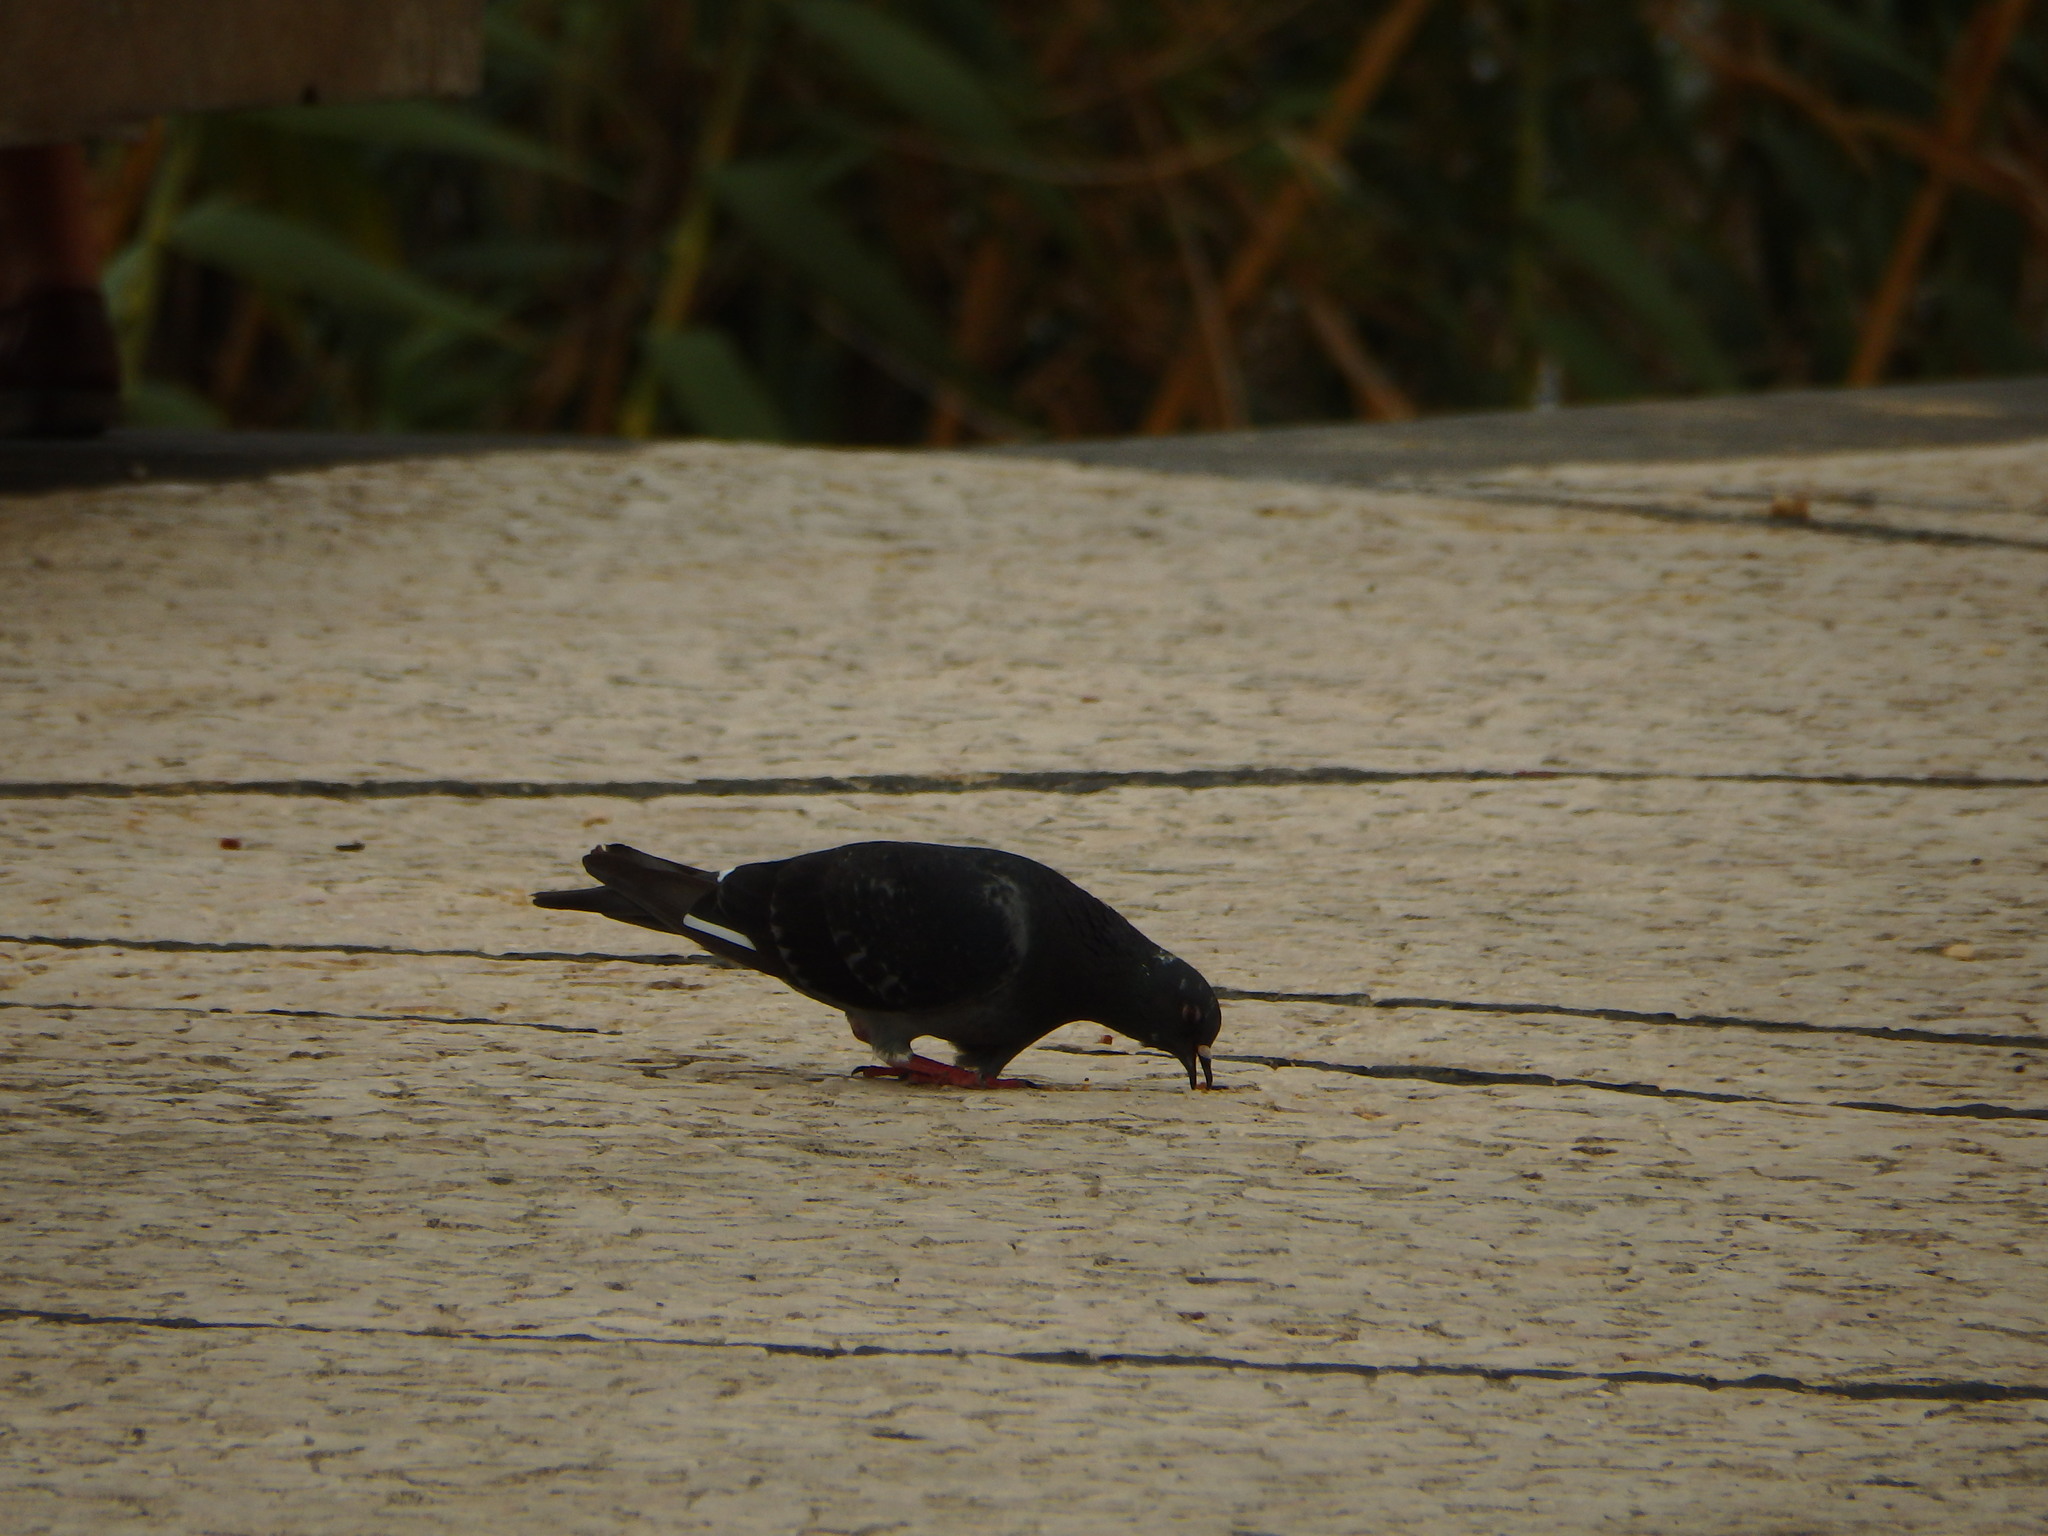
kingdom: Animalia
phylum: Chordata
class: Aves
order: Columbiformes
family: Columbidae
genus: Columba
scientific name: Columba livia
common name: Rock pigeon
